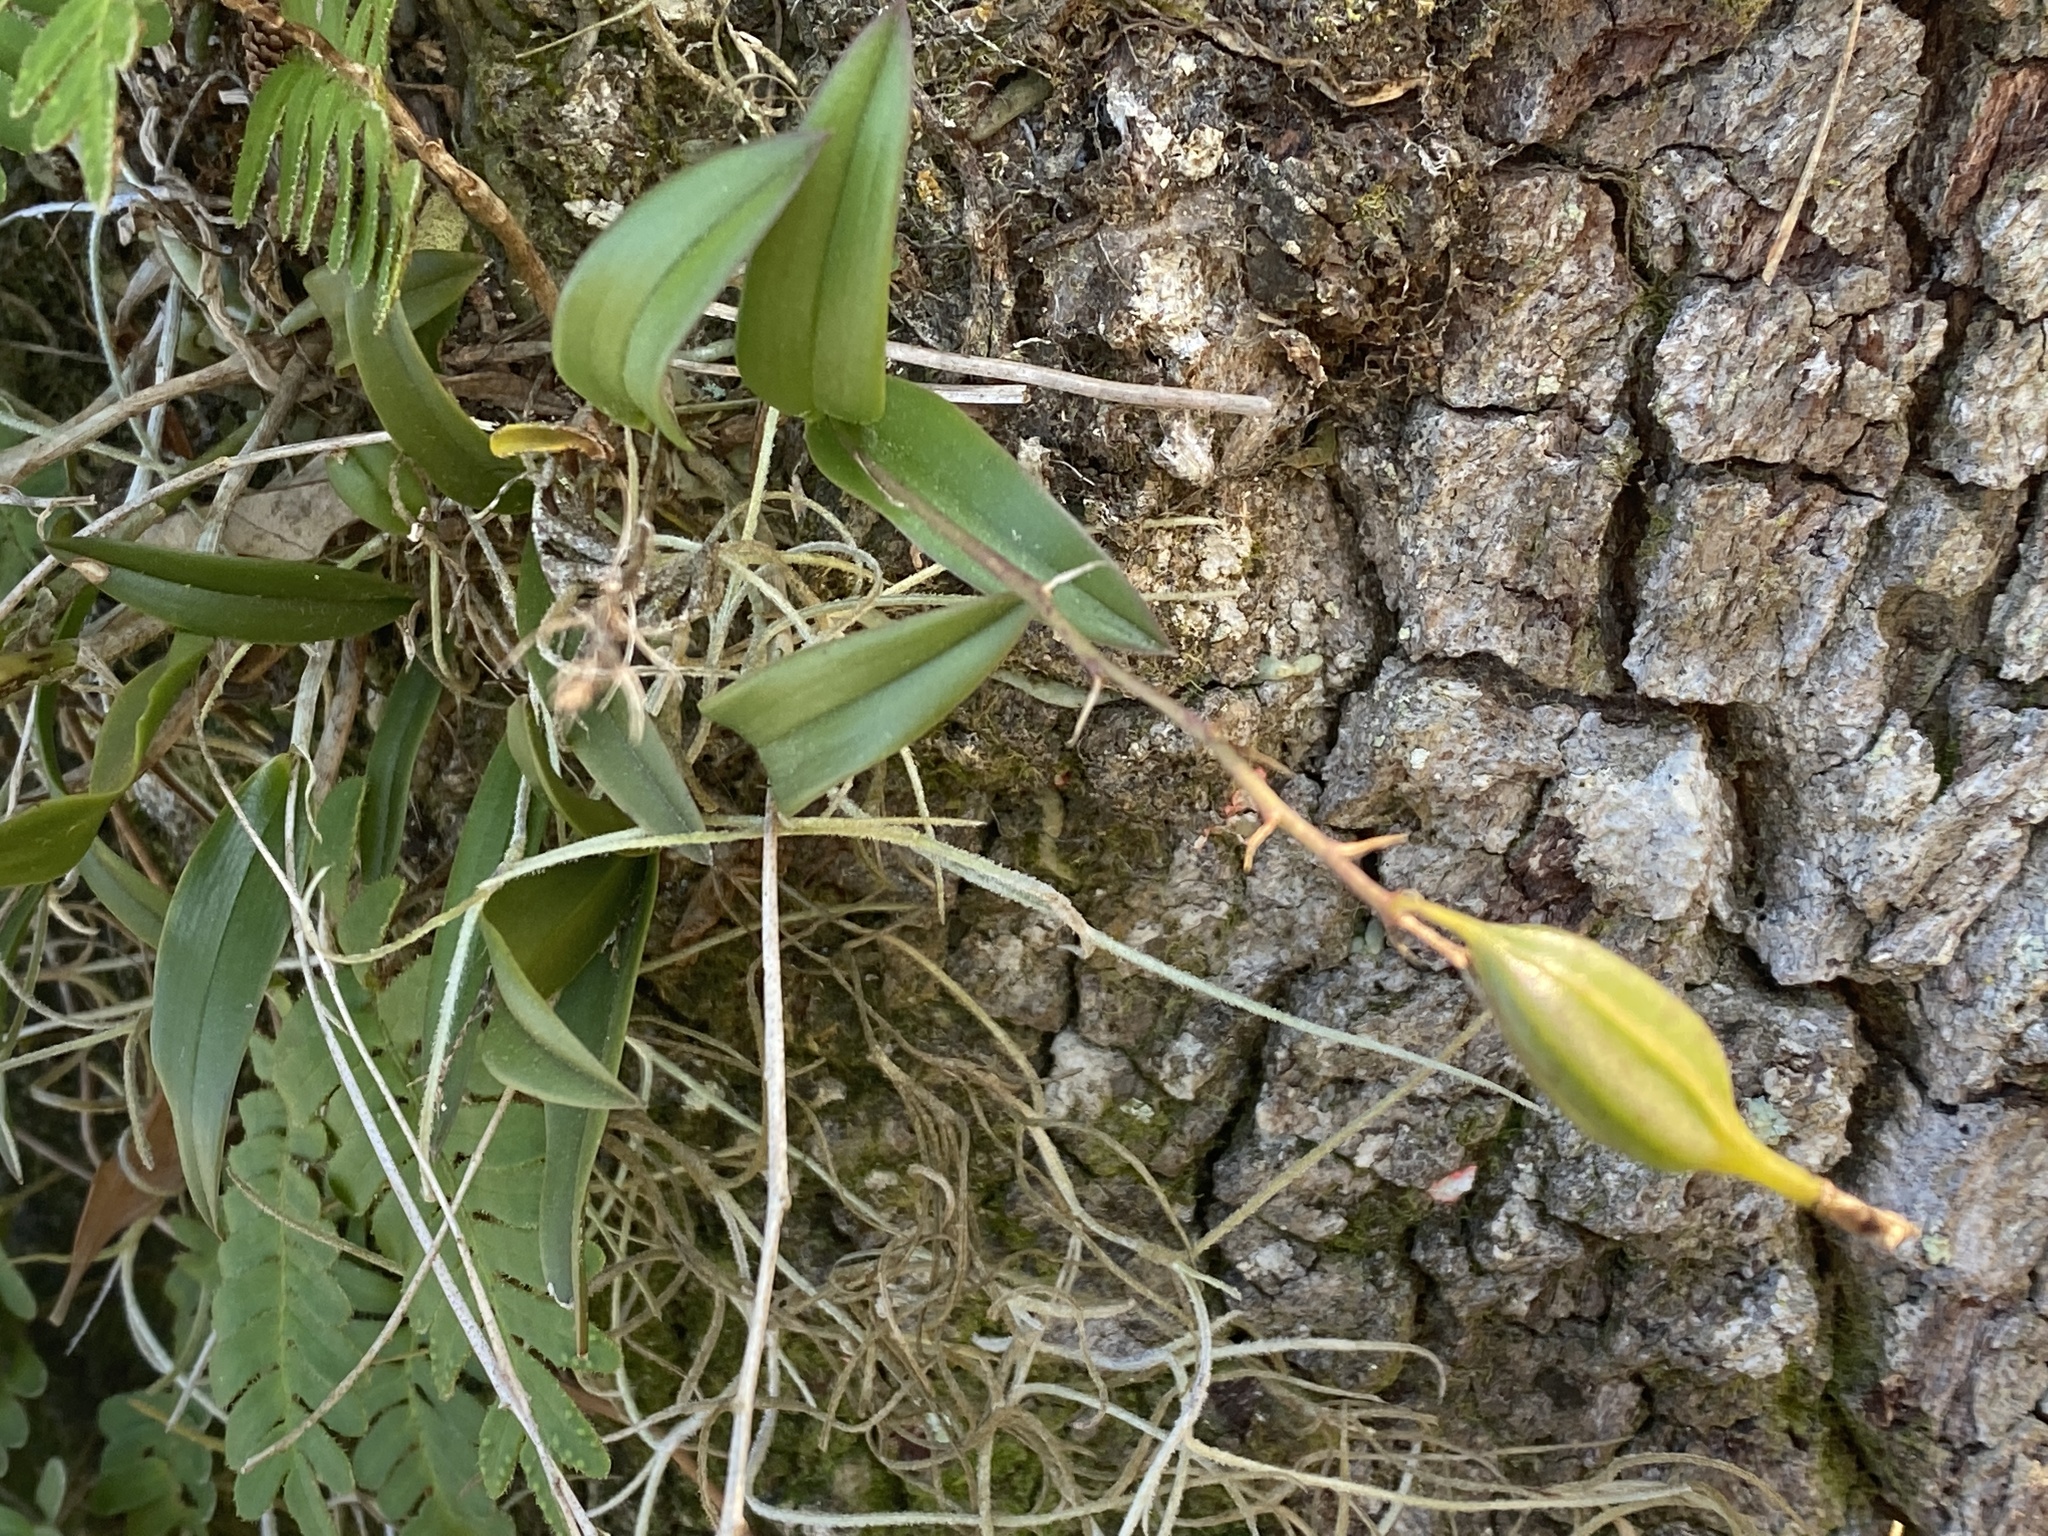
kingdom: Plantae
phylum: Tracheophyta
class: Liliopsida
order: Asparagales
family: Orchidaceae
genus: Epidendrum
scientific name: Epidendrum conopseum
